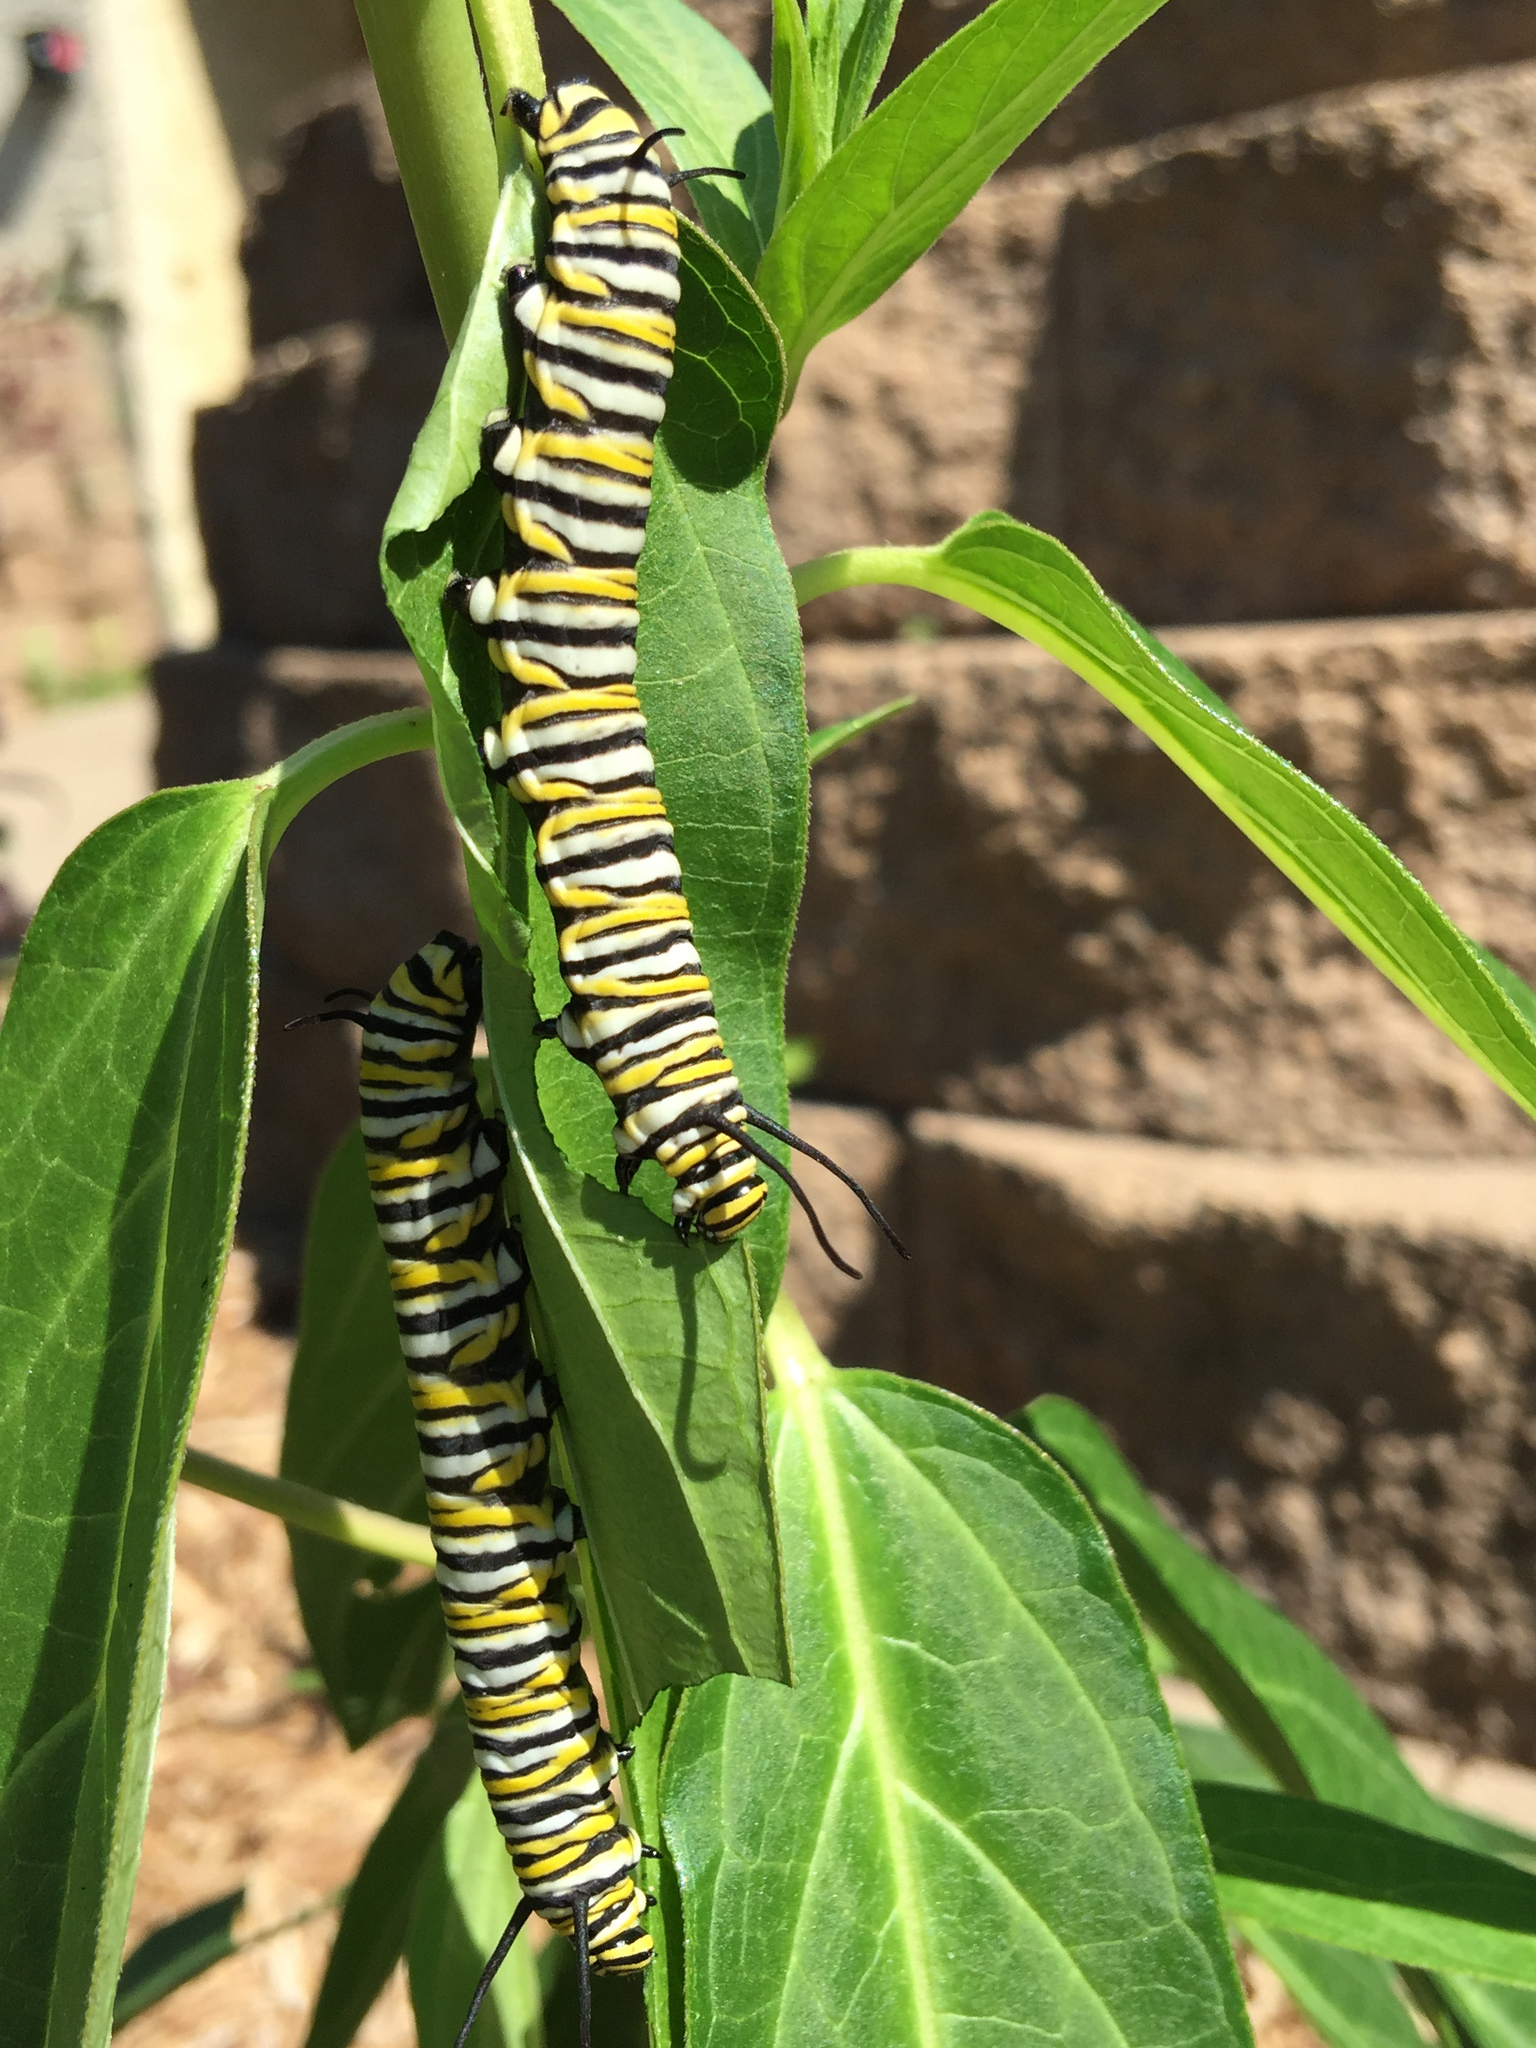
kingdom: Animalia
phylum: Arthropoda
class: Insecta
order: Lepidoptera
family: Nymphalidae
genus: Danaus
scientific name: Danaus plexippus
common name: Monarch
